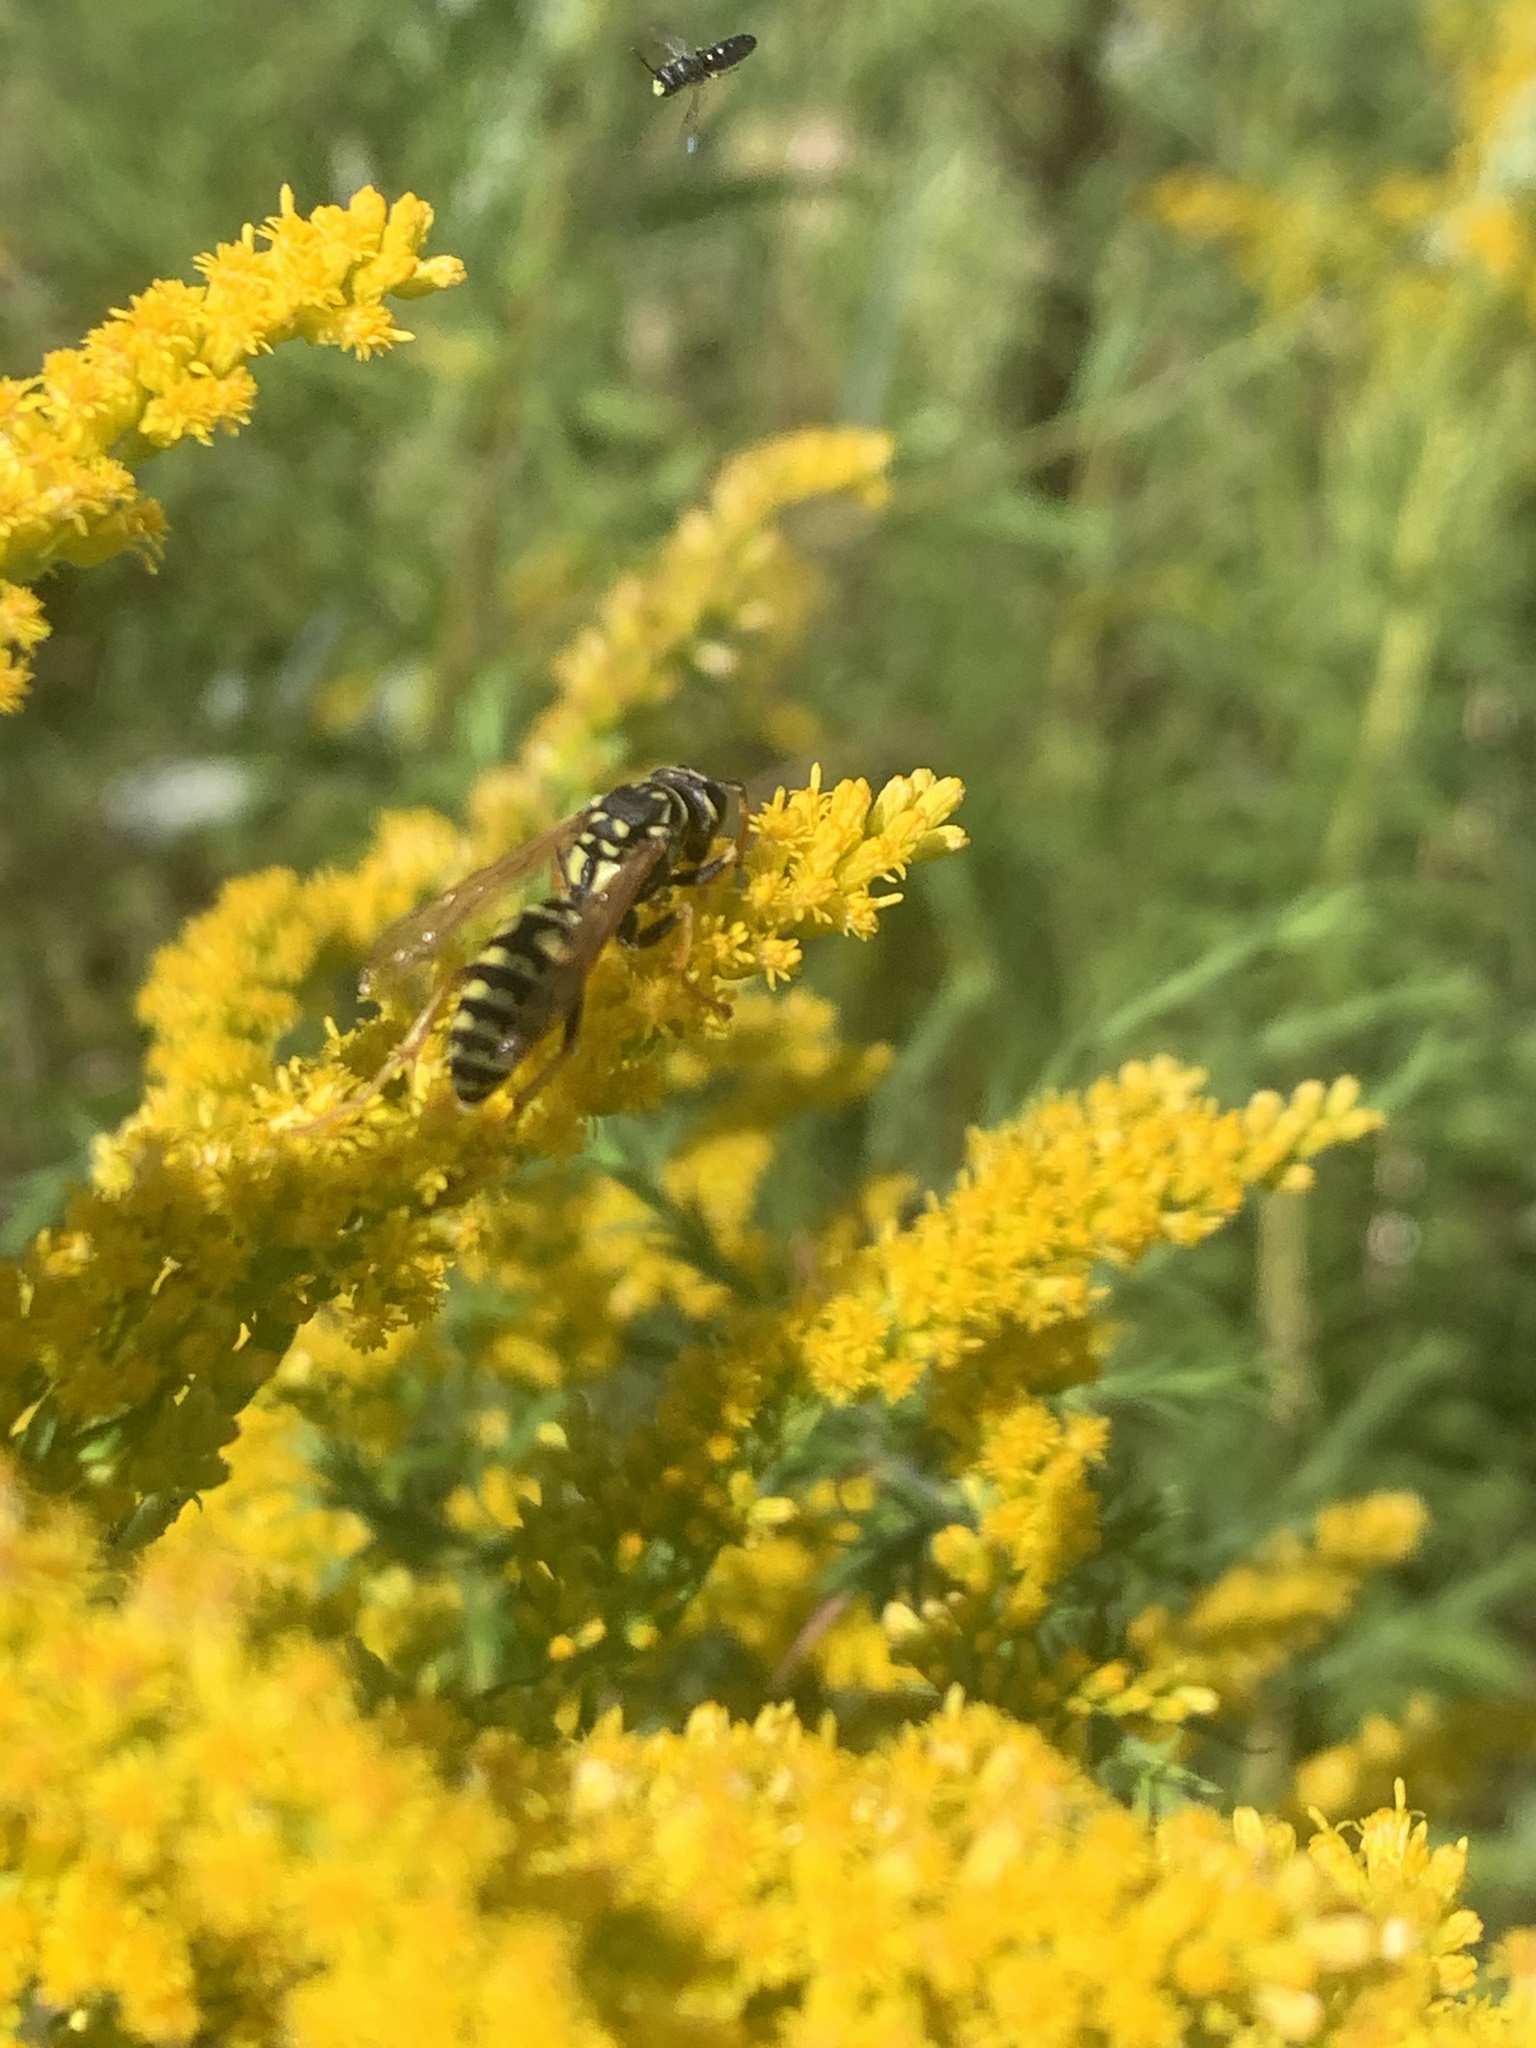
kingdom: Animalia
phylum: Arthropoda
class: Insecta
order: Hymenoptera
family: Eumenidae
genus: Polistes
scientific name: Polistes dominula
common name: Paper wasp
